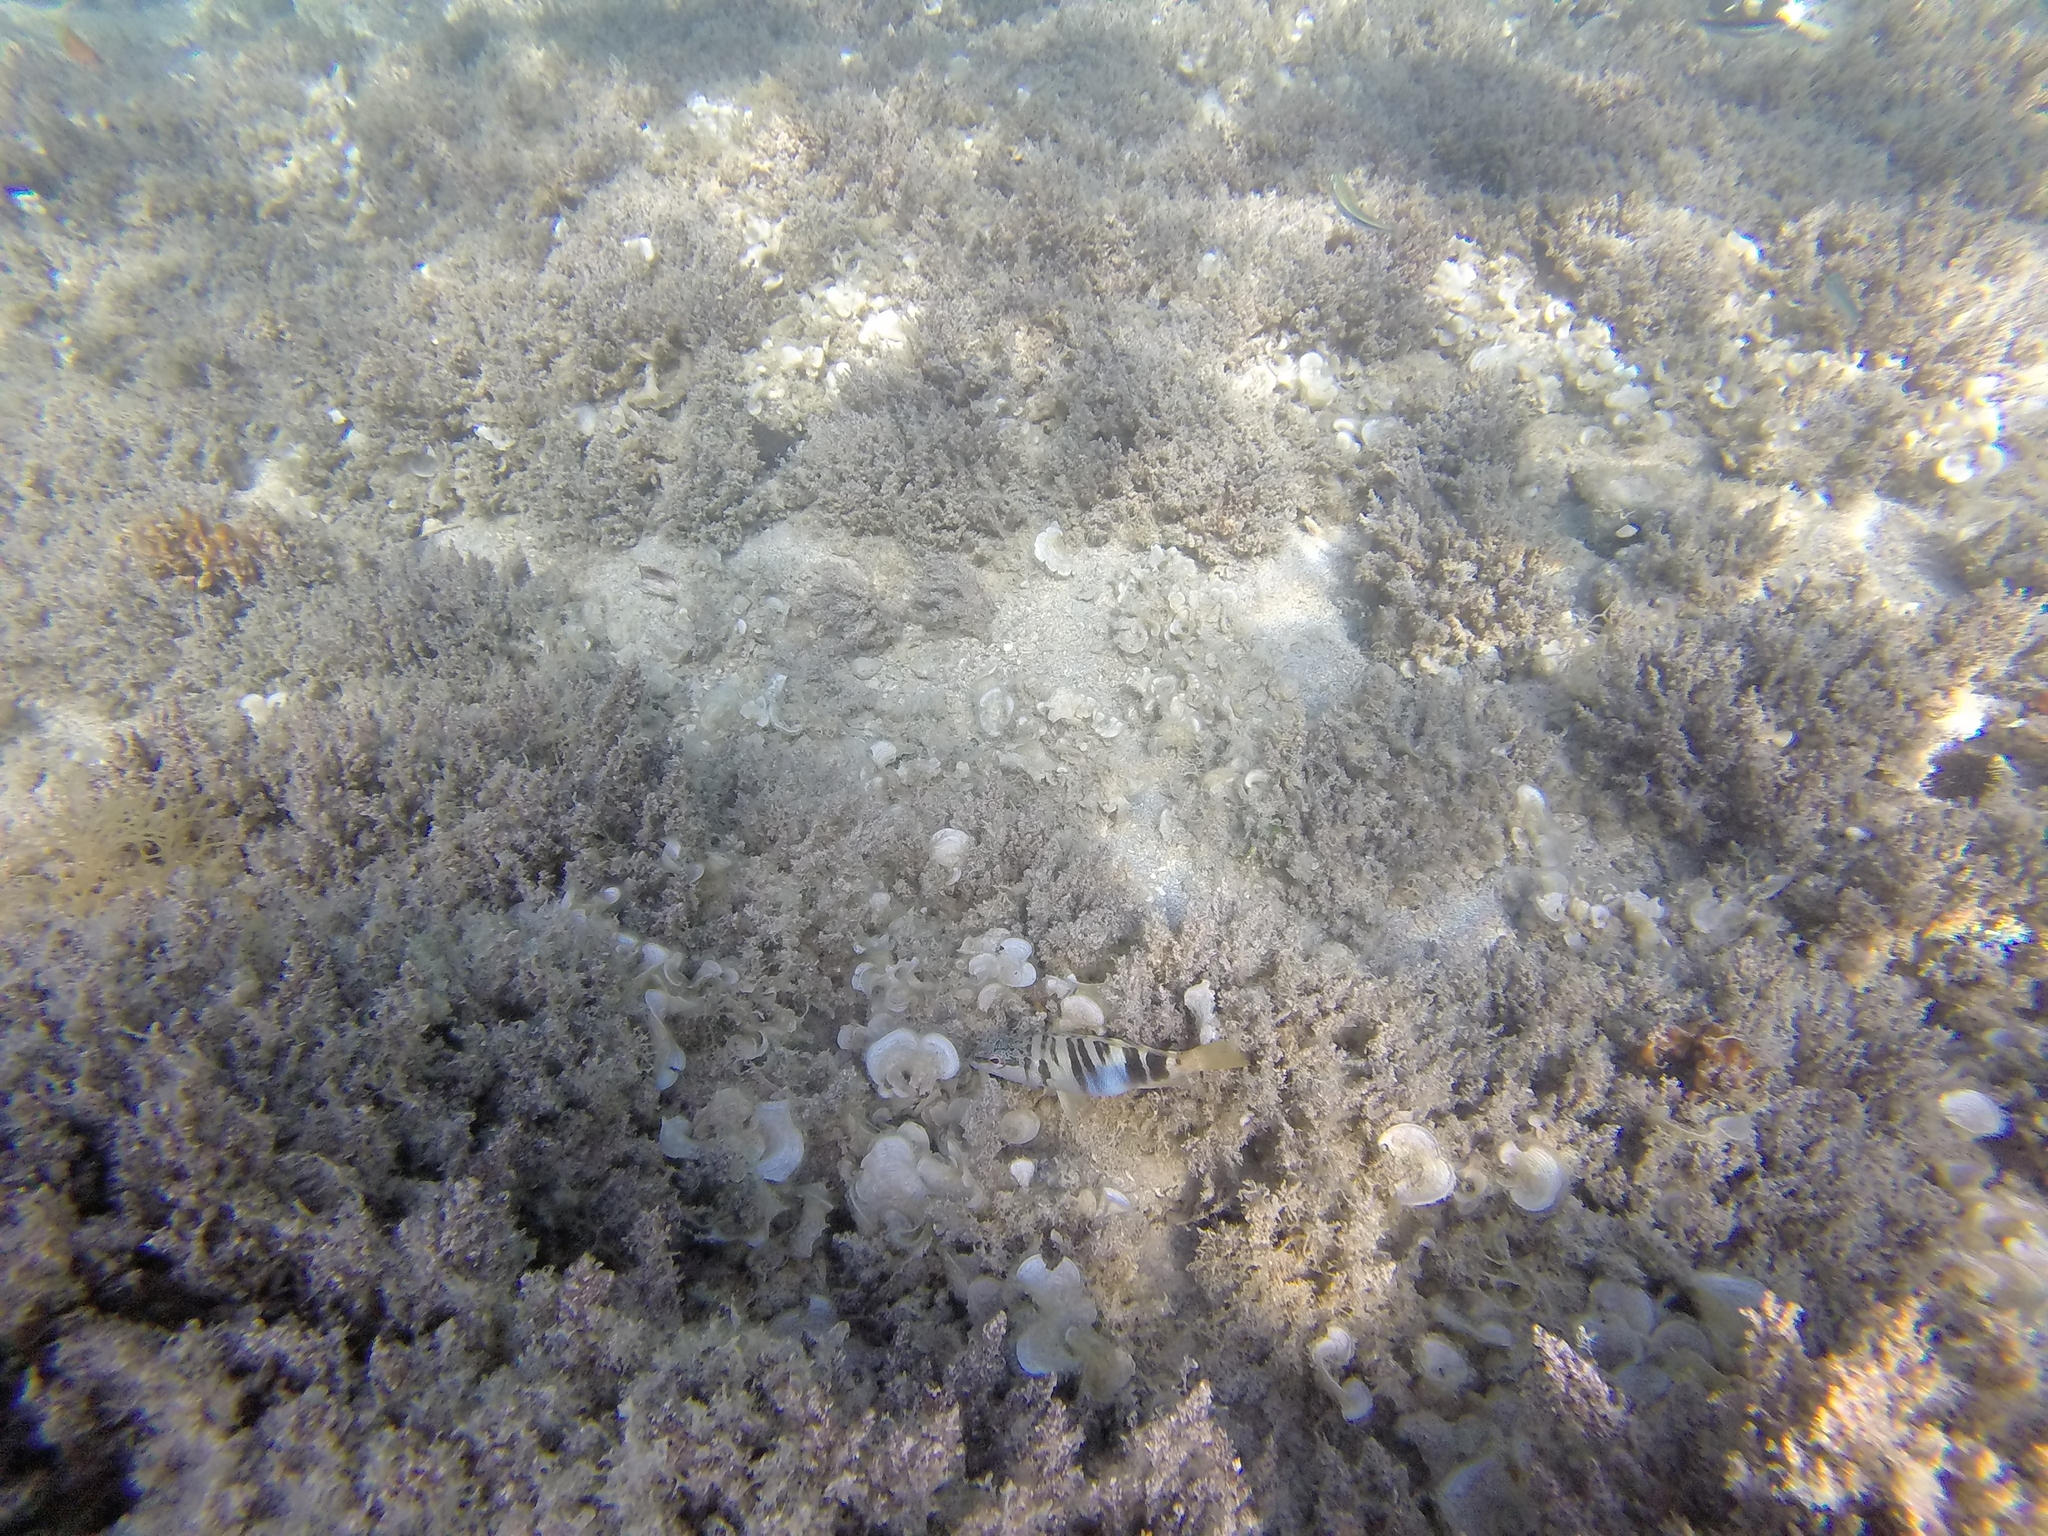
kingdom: Animalia
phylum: Chordata
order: Perciformes
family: Serranidae
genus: Serranus
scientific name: Serranus scriba
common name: Painted comber
